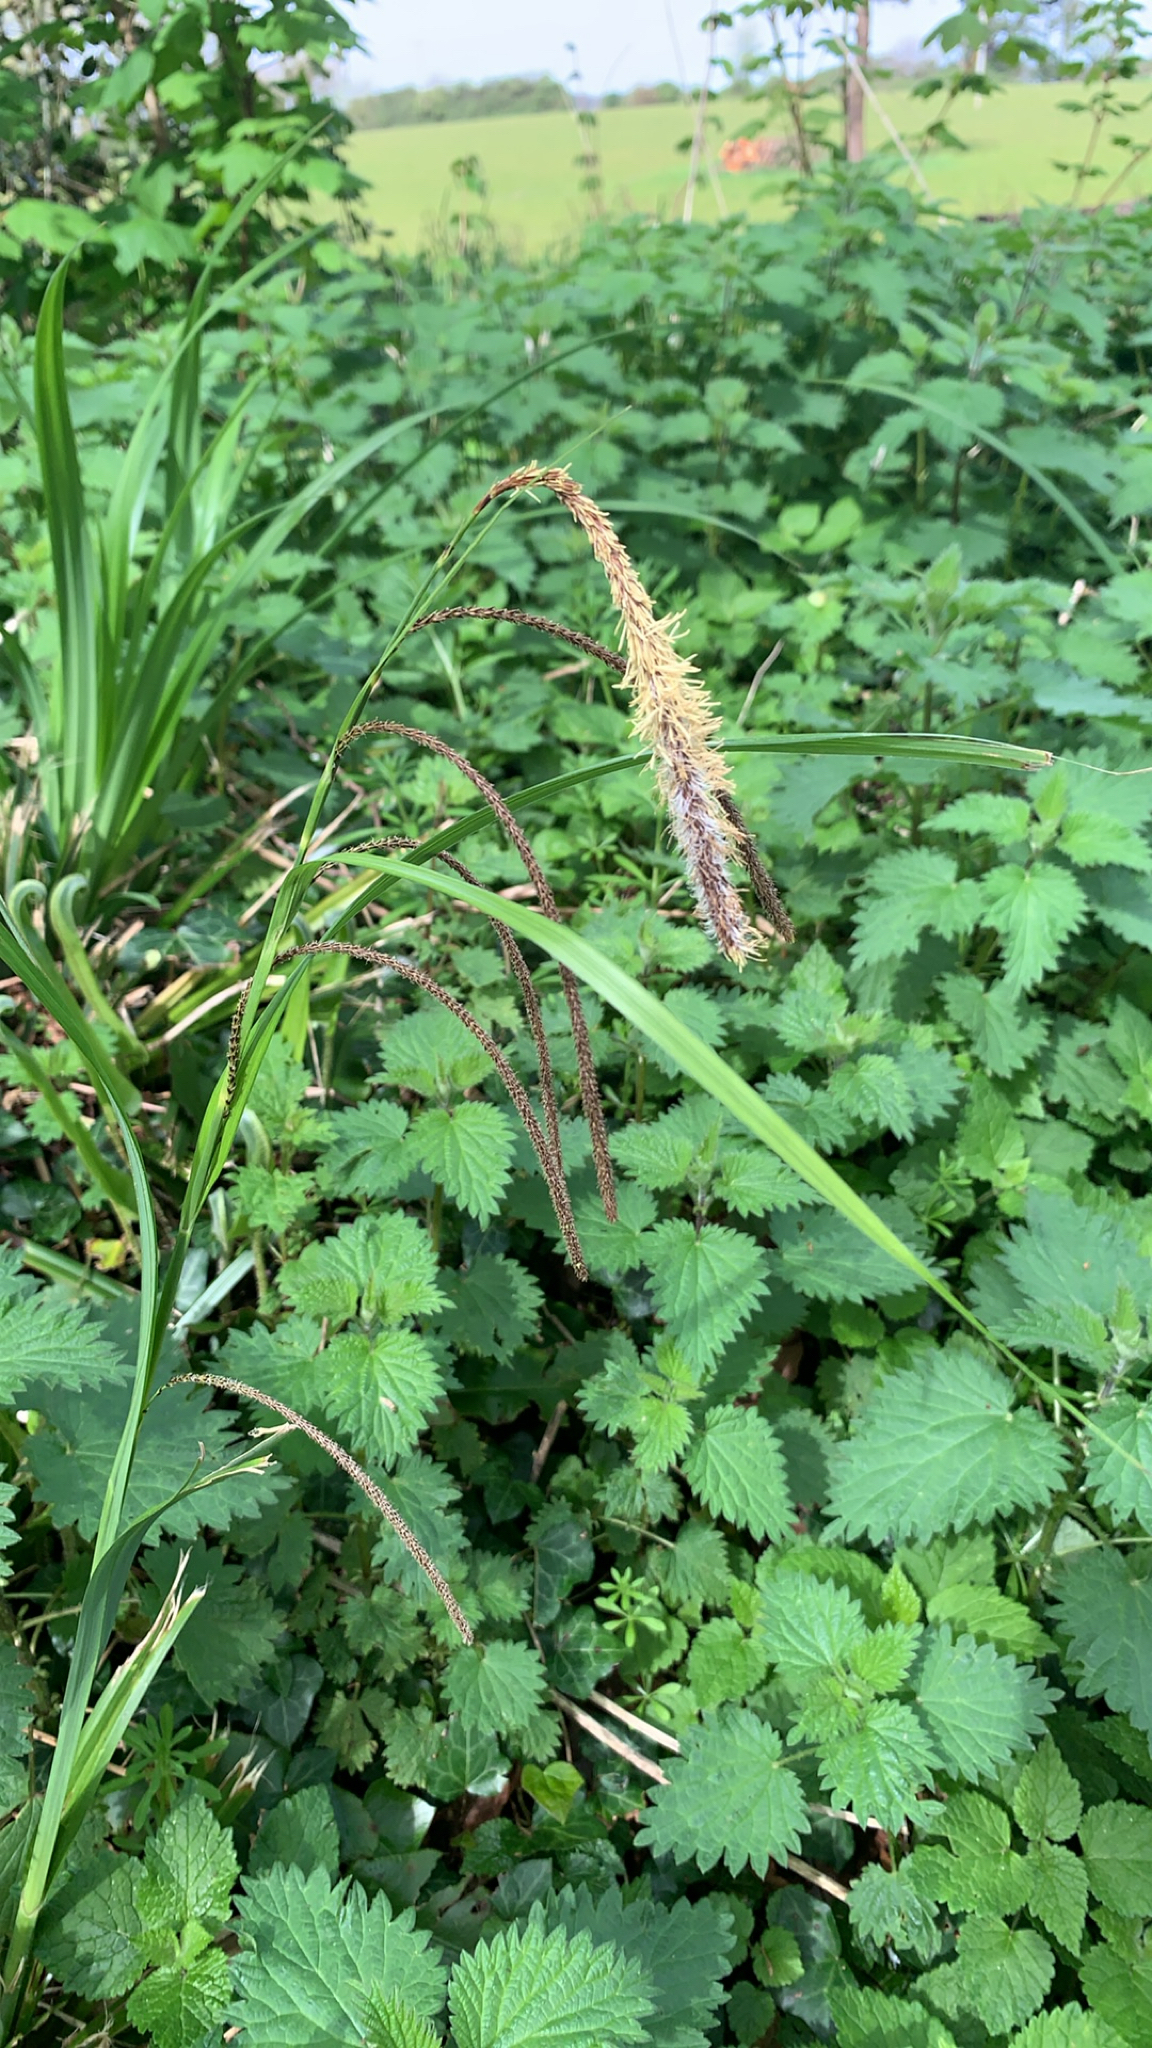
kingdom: Plantae
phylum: Tracheophyta
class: Liliopsida
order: Poales
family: Cyperaceae
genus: Carex
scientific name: Carex pendula
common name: Pendulous sedge
